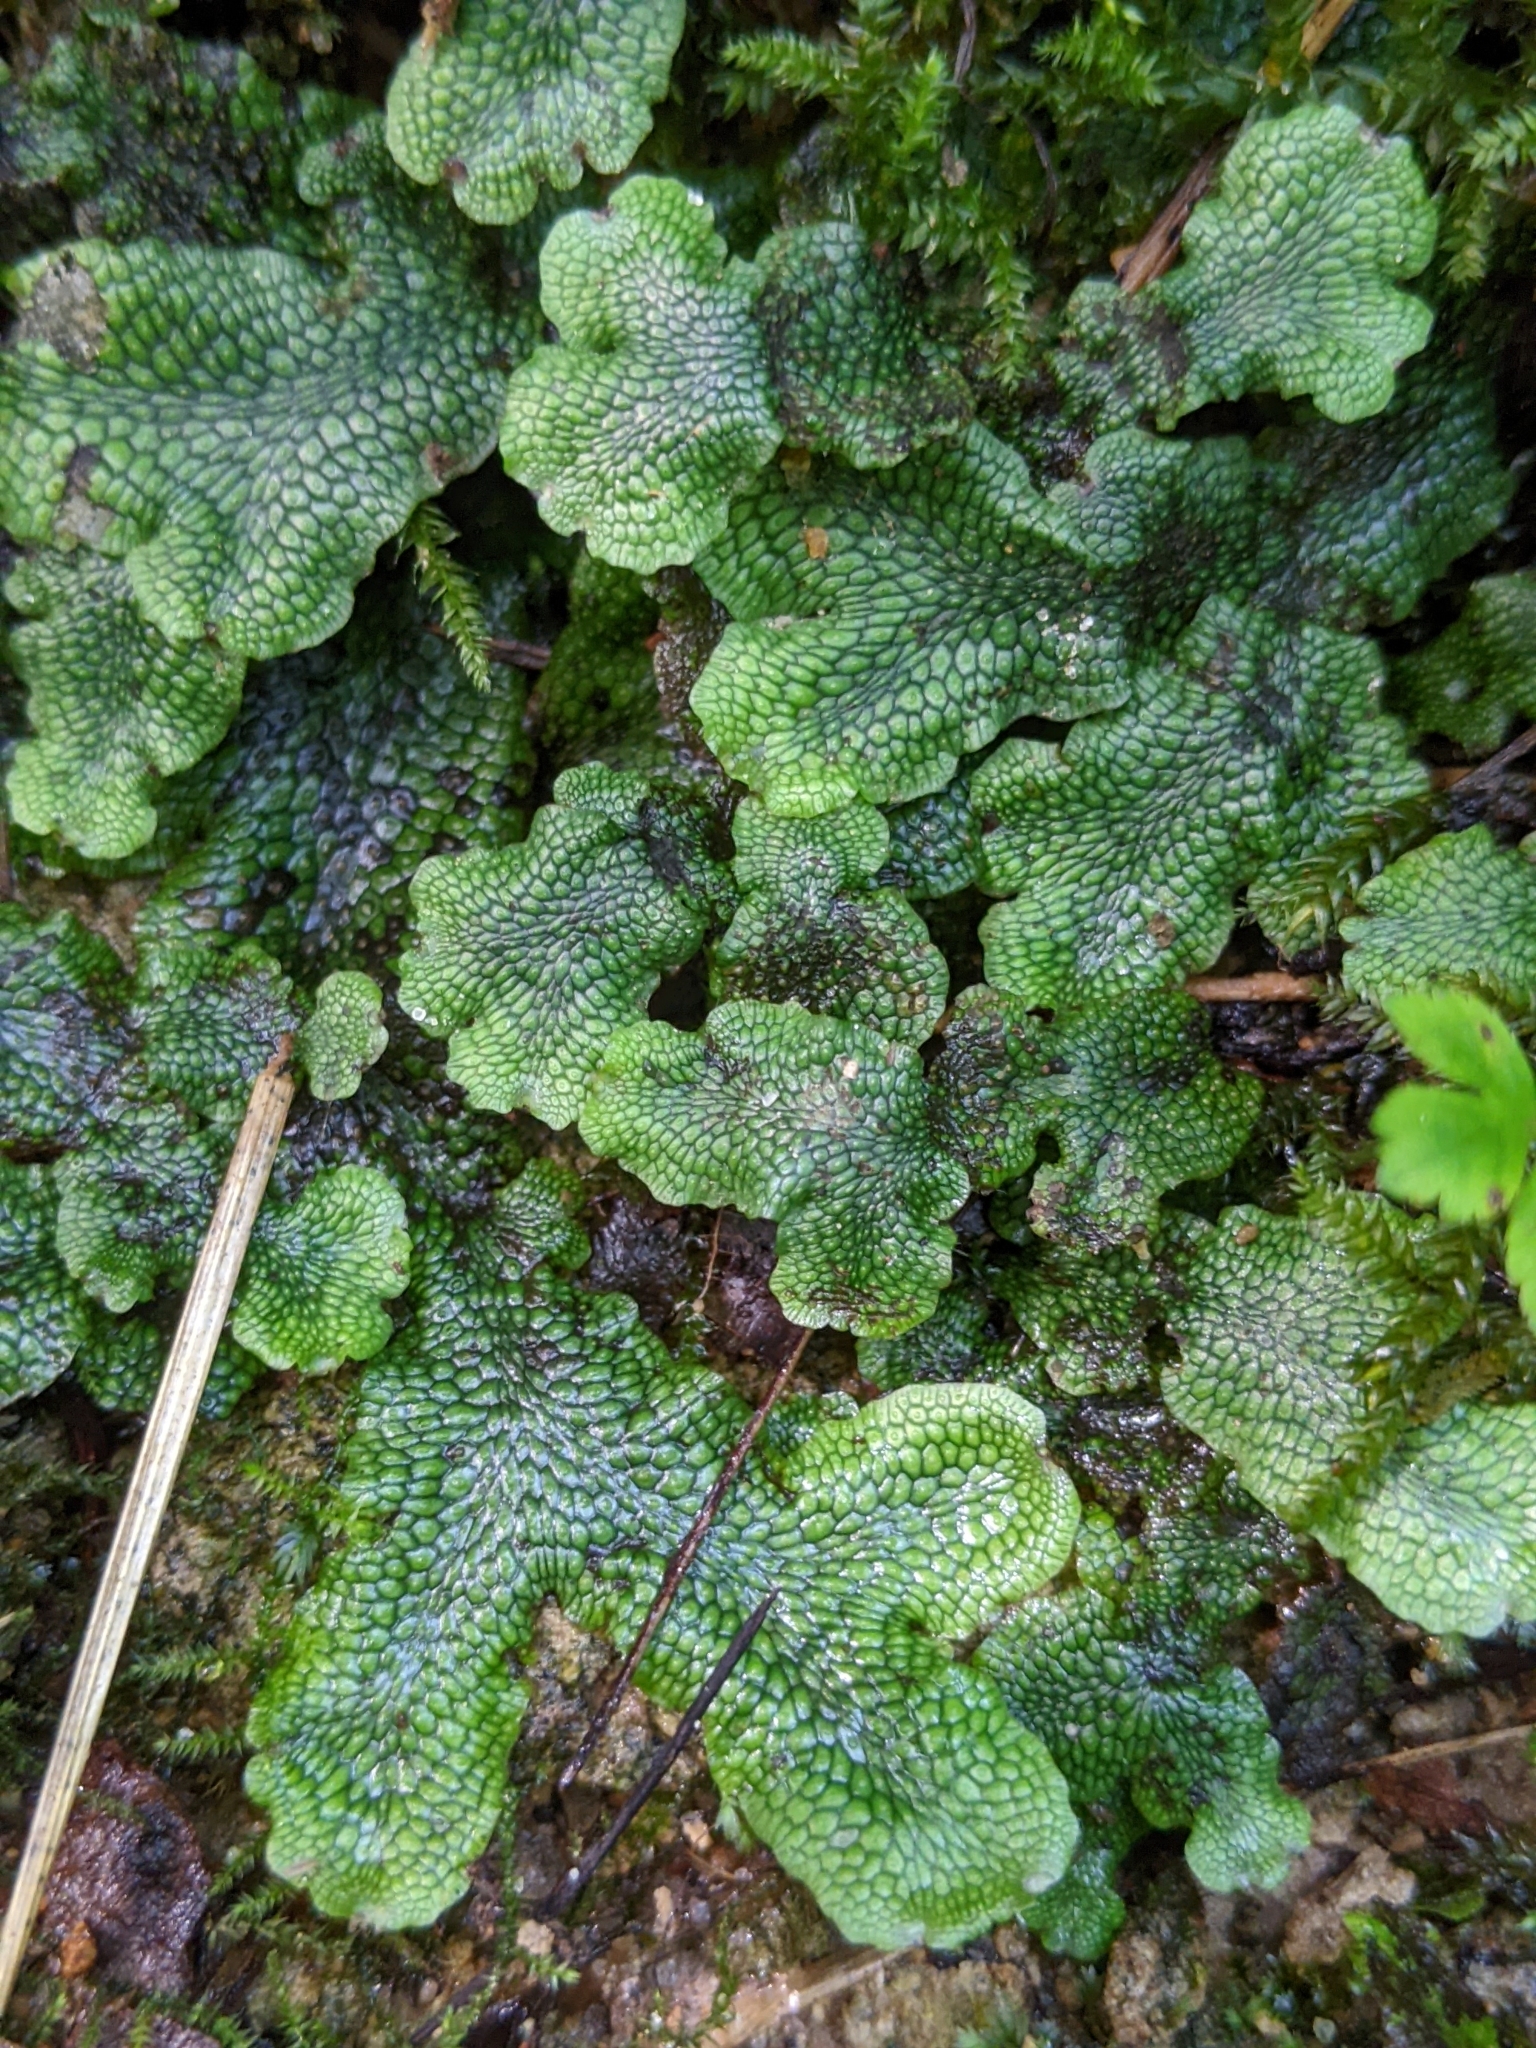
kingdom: Plantae
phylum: Marchantiophyta
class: Marchantiopsida
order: Marchantiales
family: Conocephalaceae
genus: Conocephalum
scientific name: Conocephalum salebrosum
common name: Cat-tongue liverwort
